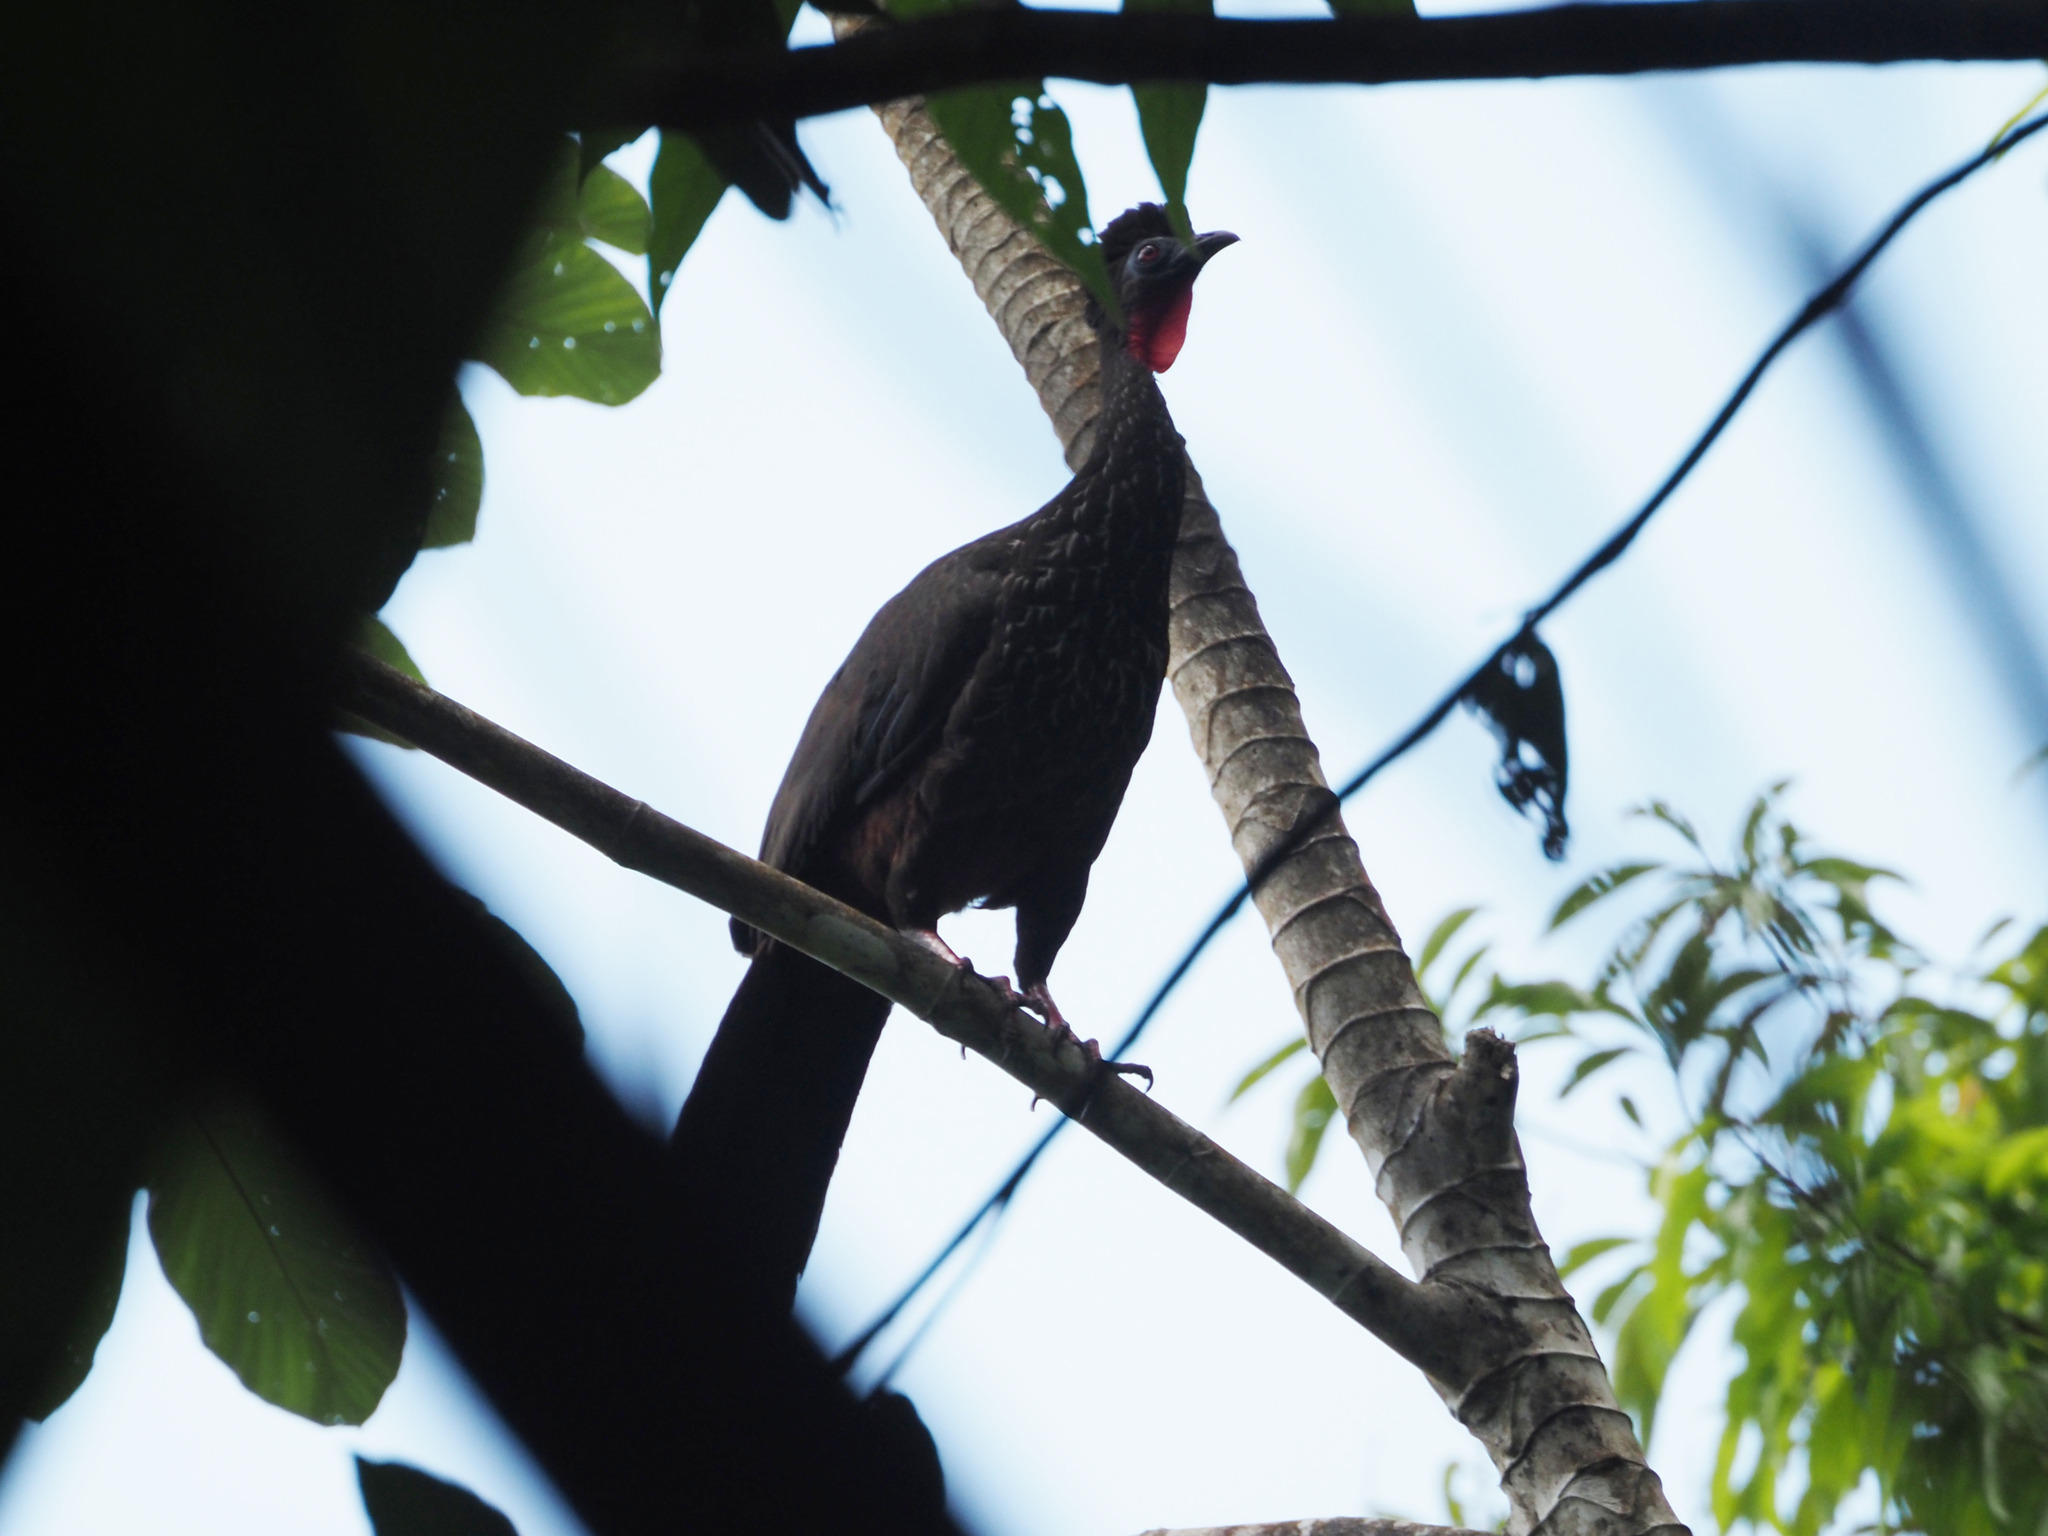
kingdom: Animalia
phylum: Chordata
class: Aves
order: Galliformes
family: Cracidae
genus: Penelope
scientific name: Penelope purpurascens
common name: Crested guan
